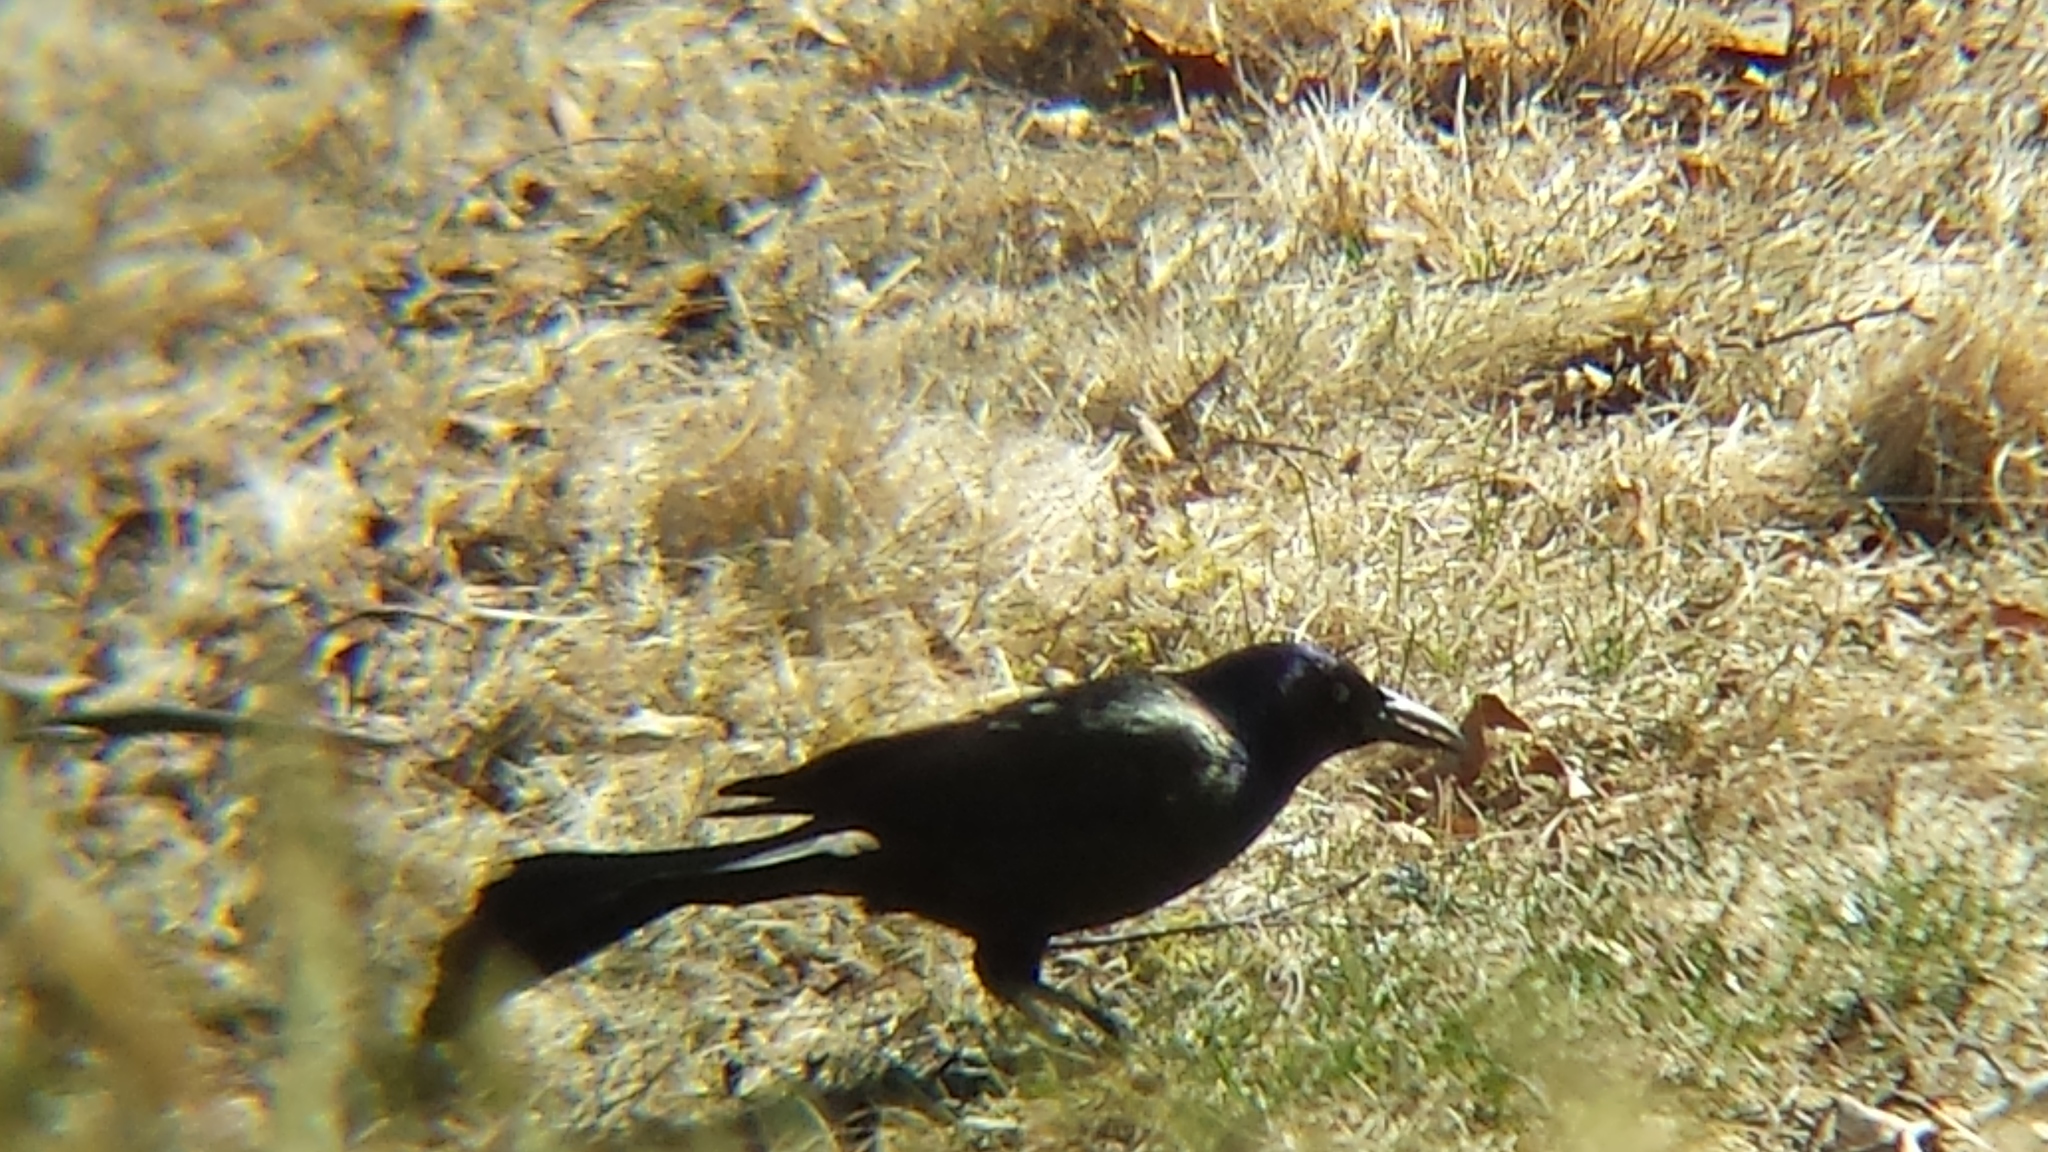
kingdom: Animalia
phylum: Chordata
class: Aves
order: Passeriformes
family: Icteridae
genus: Quiscalus
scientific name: Quiscalus quiscula
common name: Common grackle
